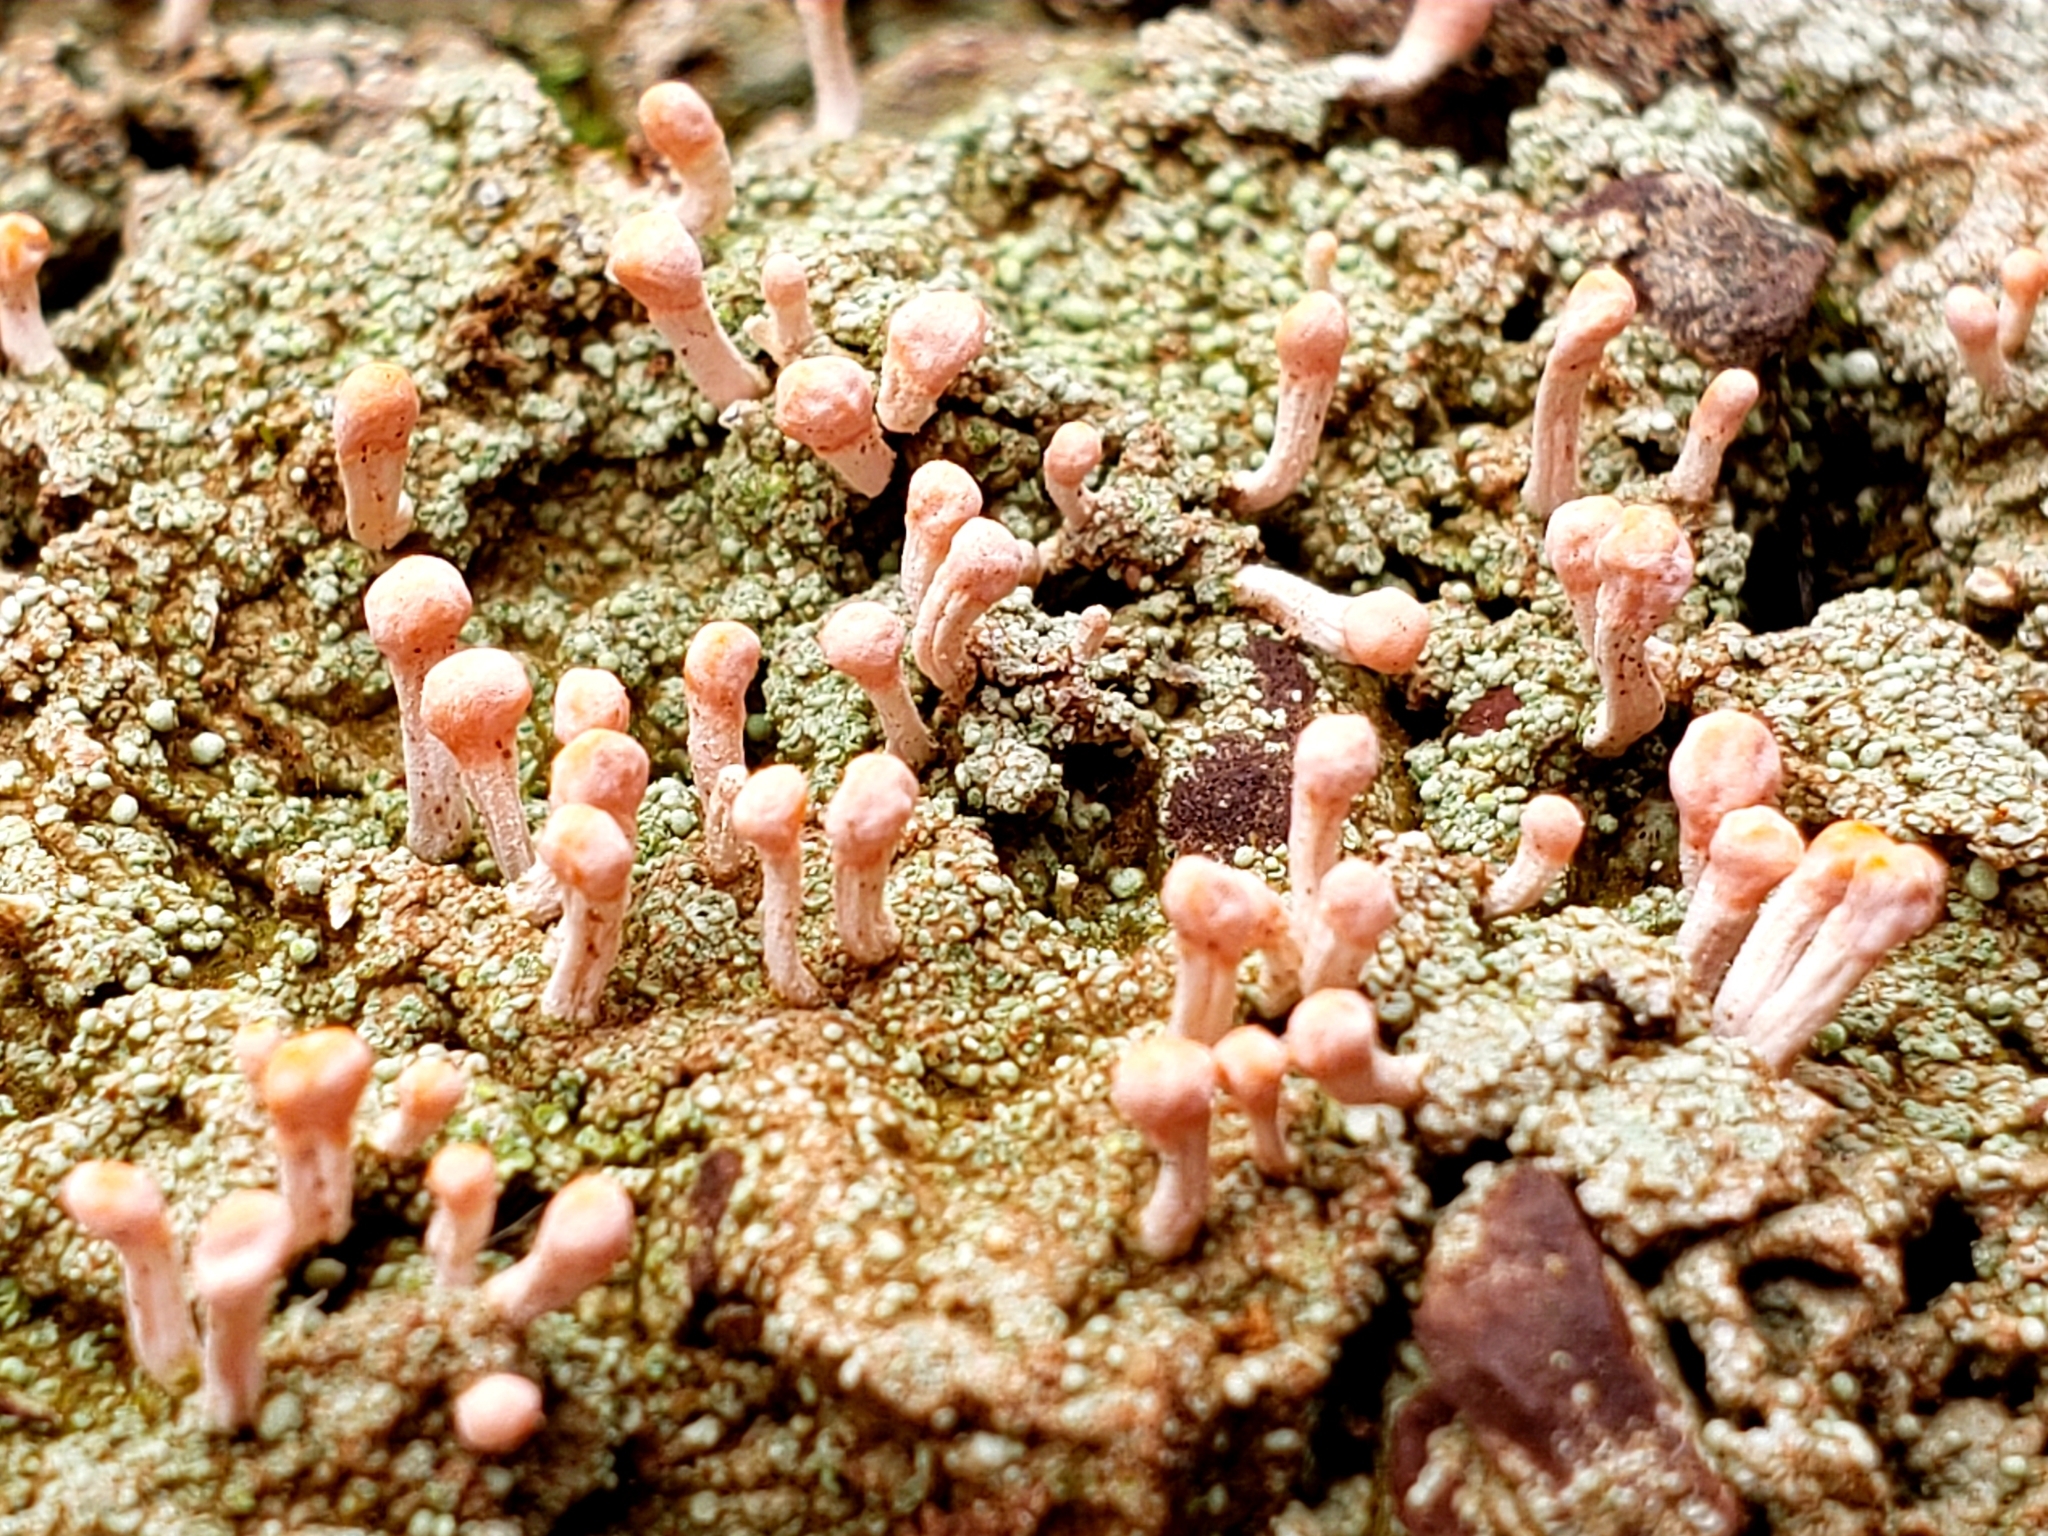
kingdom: Fungi
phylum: Ascomycota
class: Lecanoromycetes
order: Pertusariales
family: Icmadophilaceae
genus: Dibaeis
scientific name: Dibaeis baeomyces
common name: Pink earth lichen
